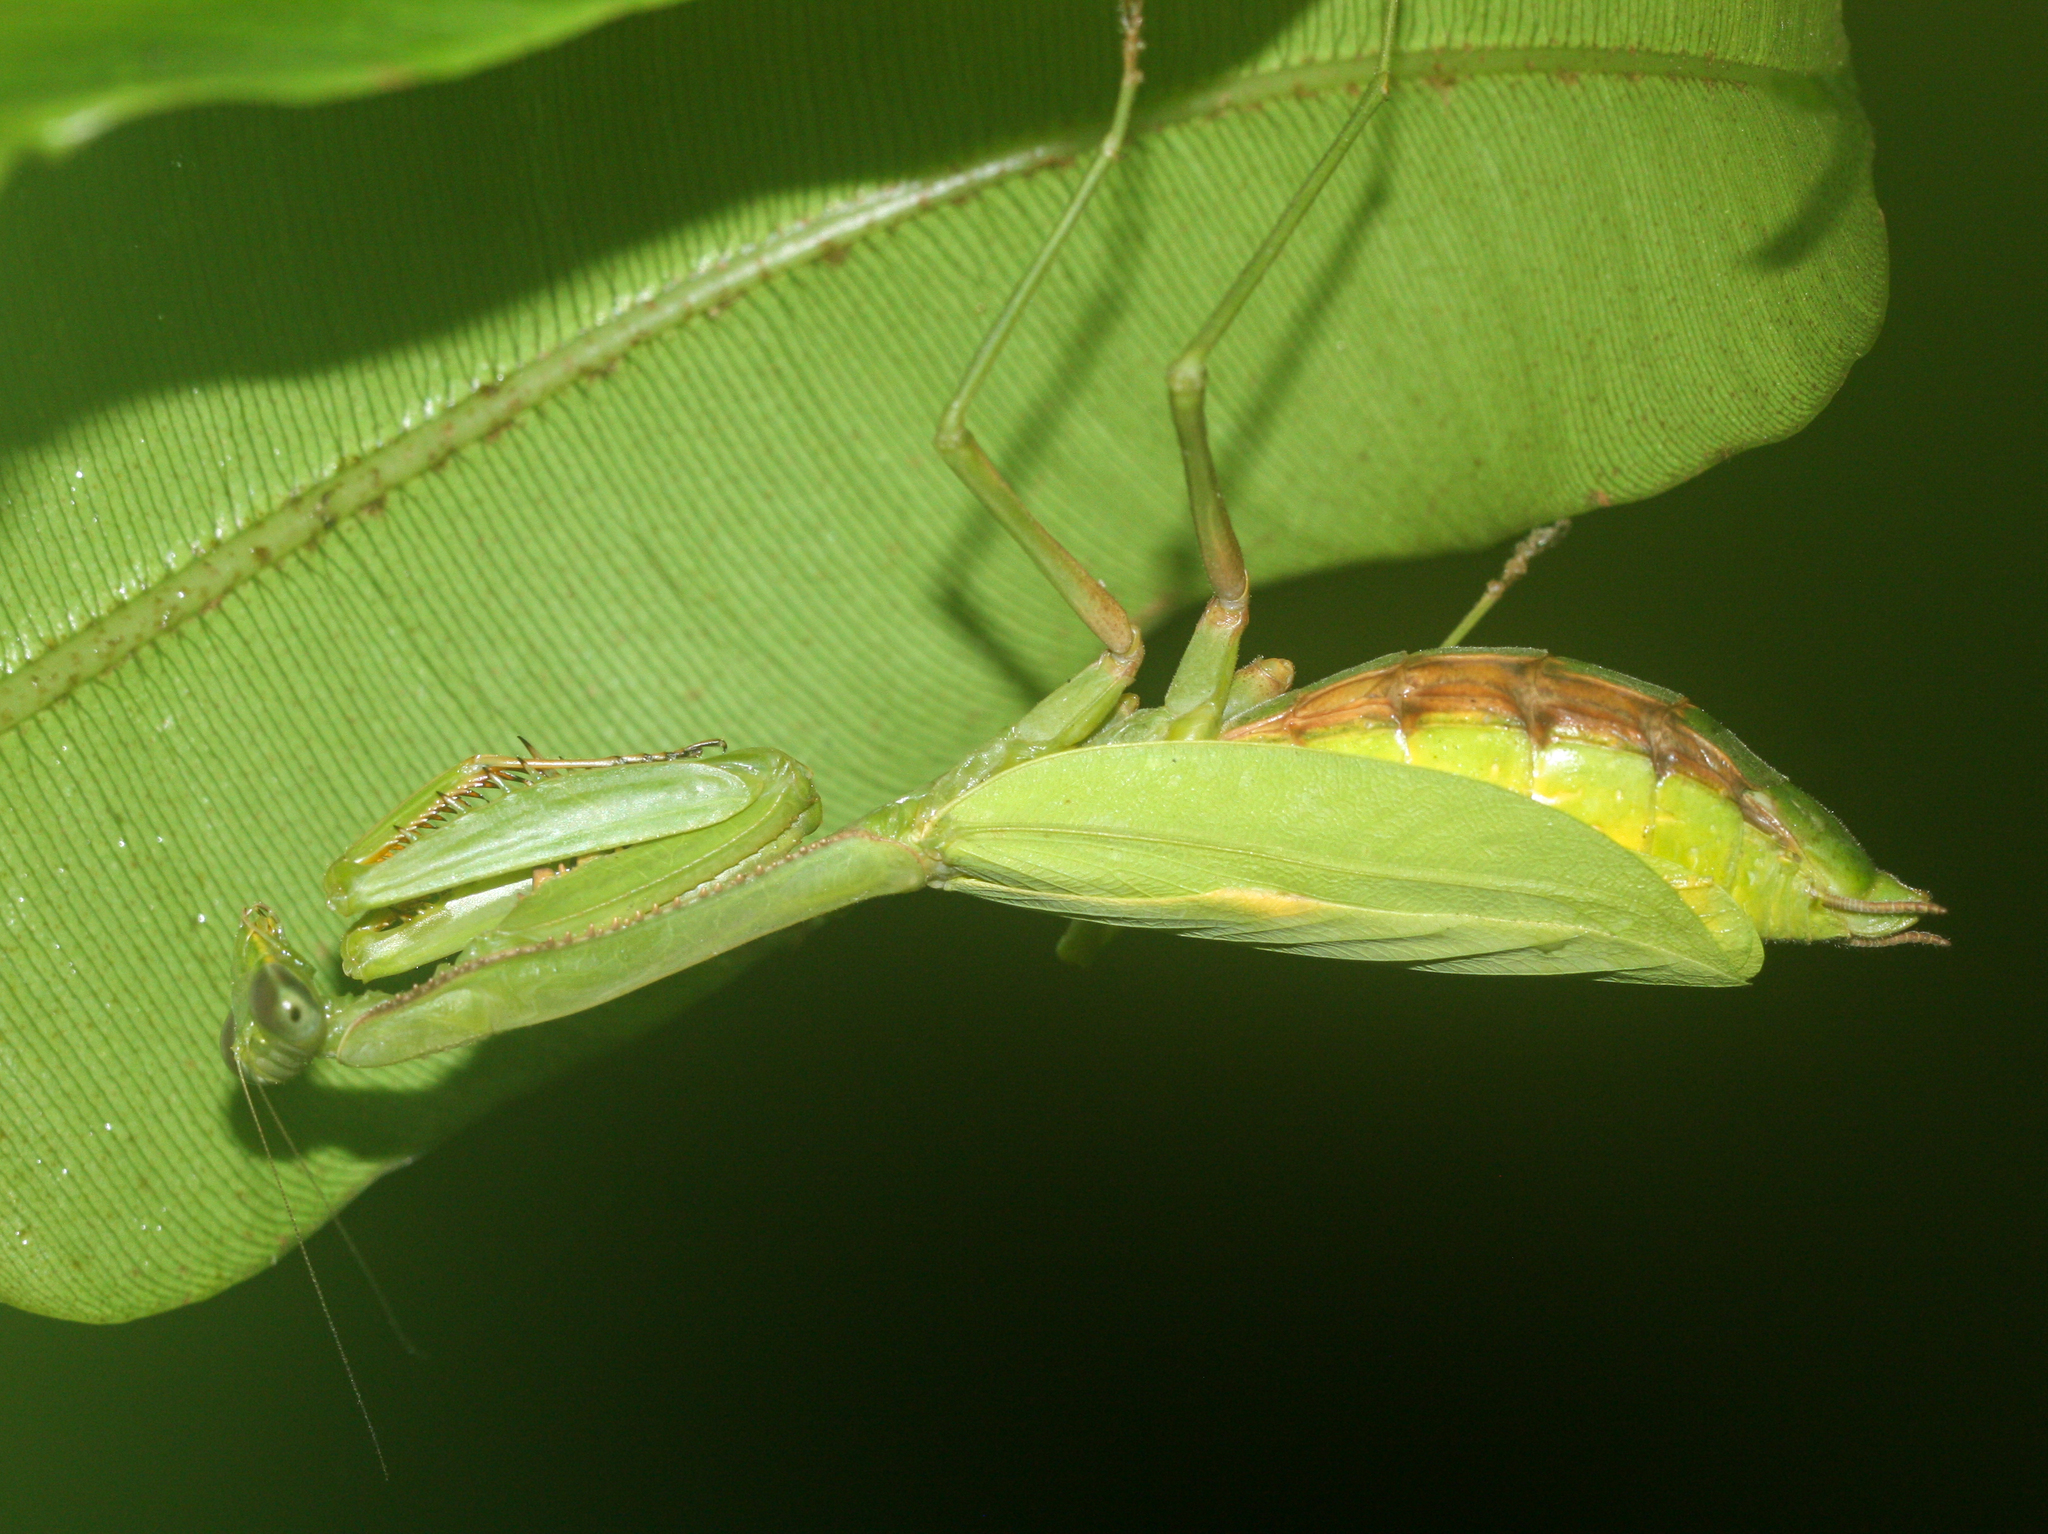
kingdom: Animalia
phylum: Arthropoda
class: Insecta
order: Mantodea
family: Mantidae
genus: Stagmomantis
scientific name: Stagmomantis theophila
